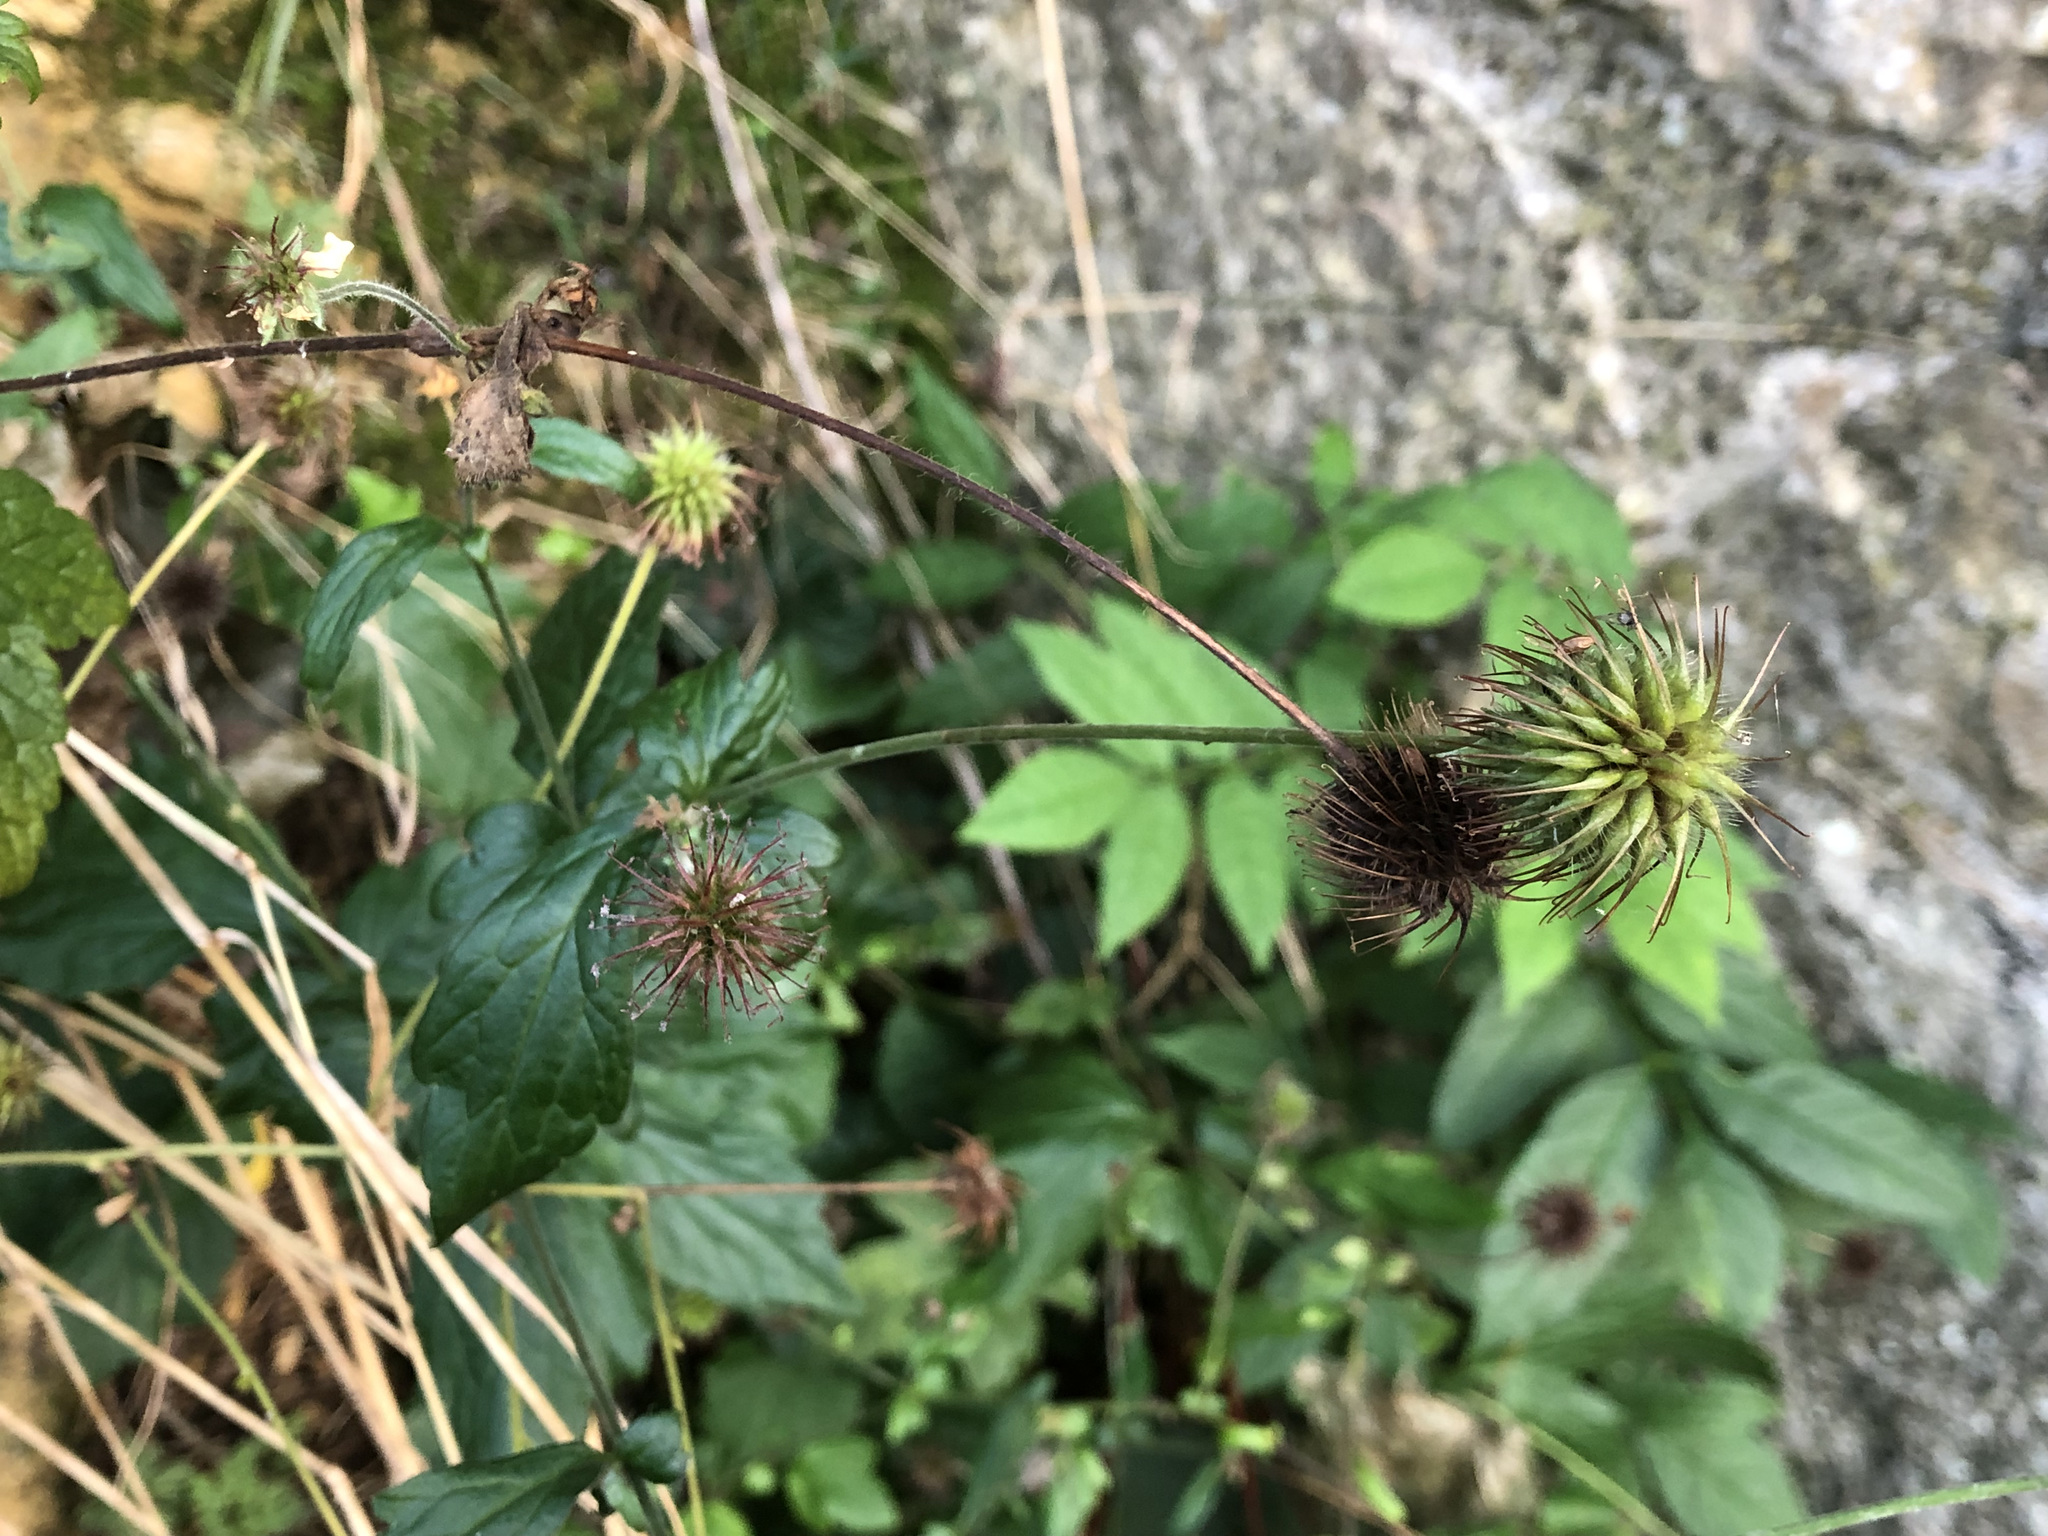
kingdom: Plantae
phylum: Tracheophyta
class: Magnoliopsida
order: Rosales
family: Rosaceae
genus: Geum
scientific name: Geum urbanum
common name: Wood avens
